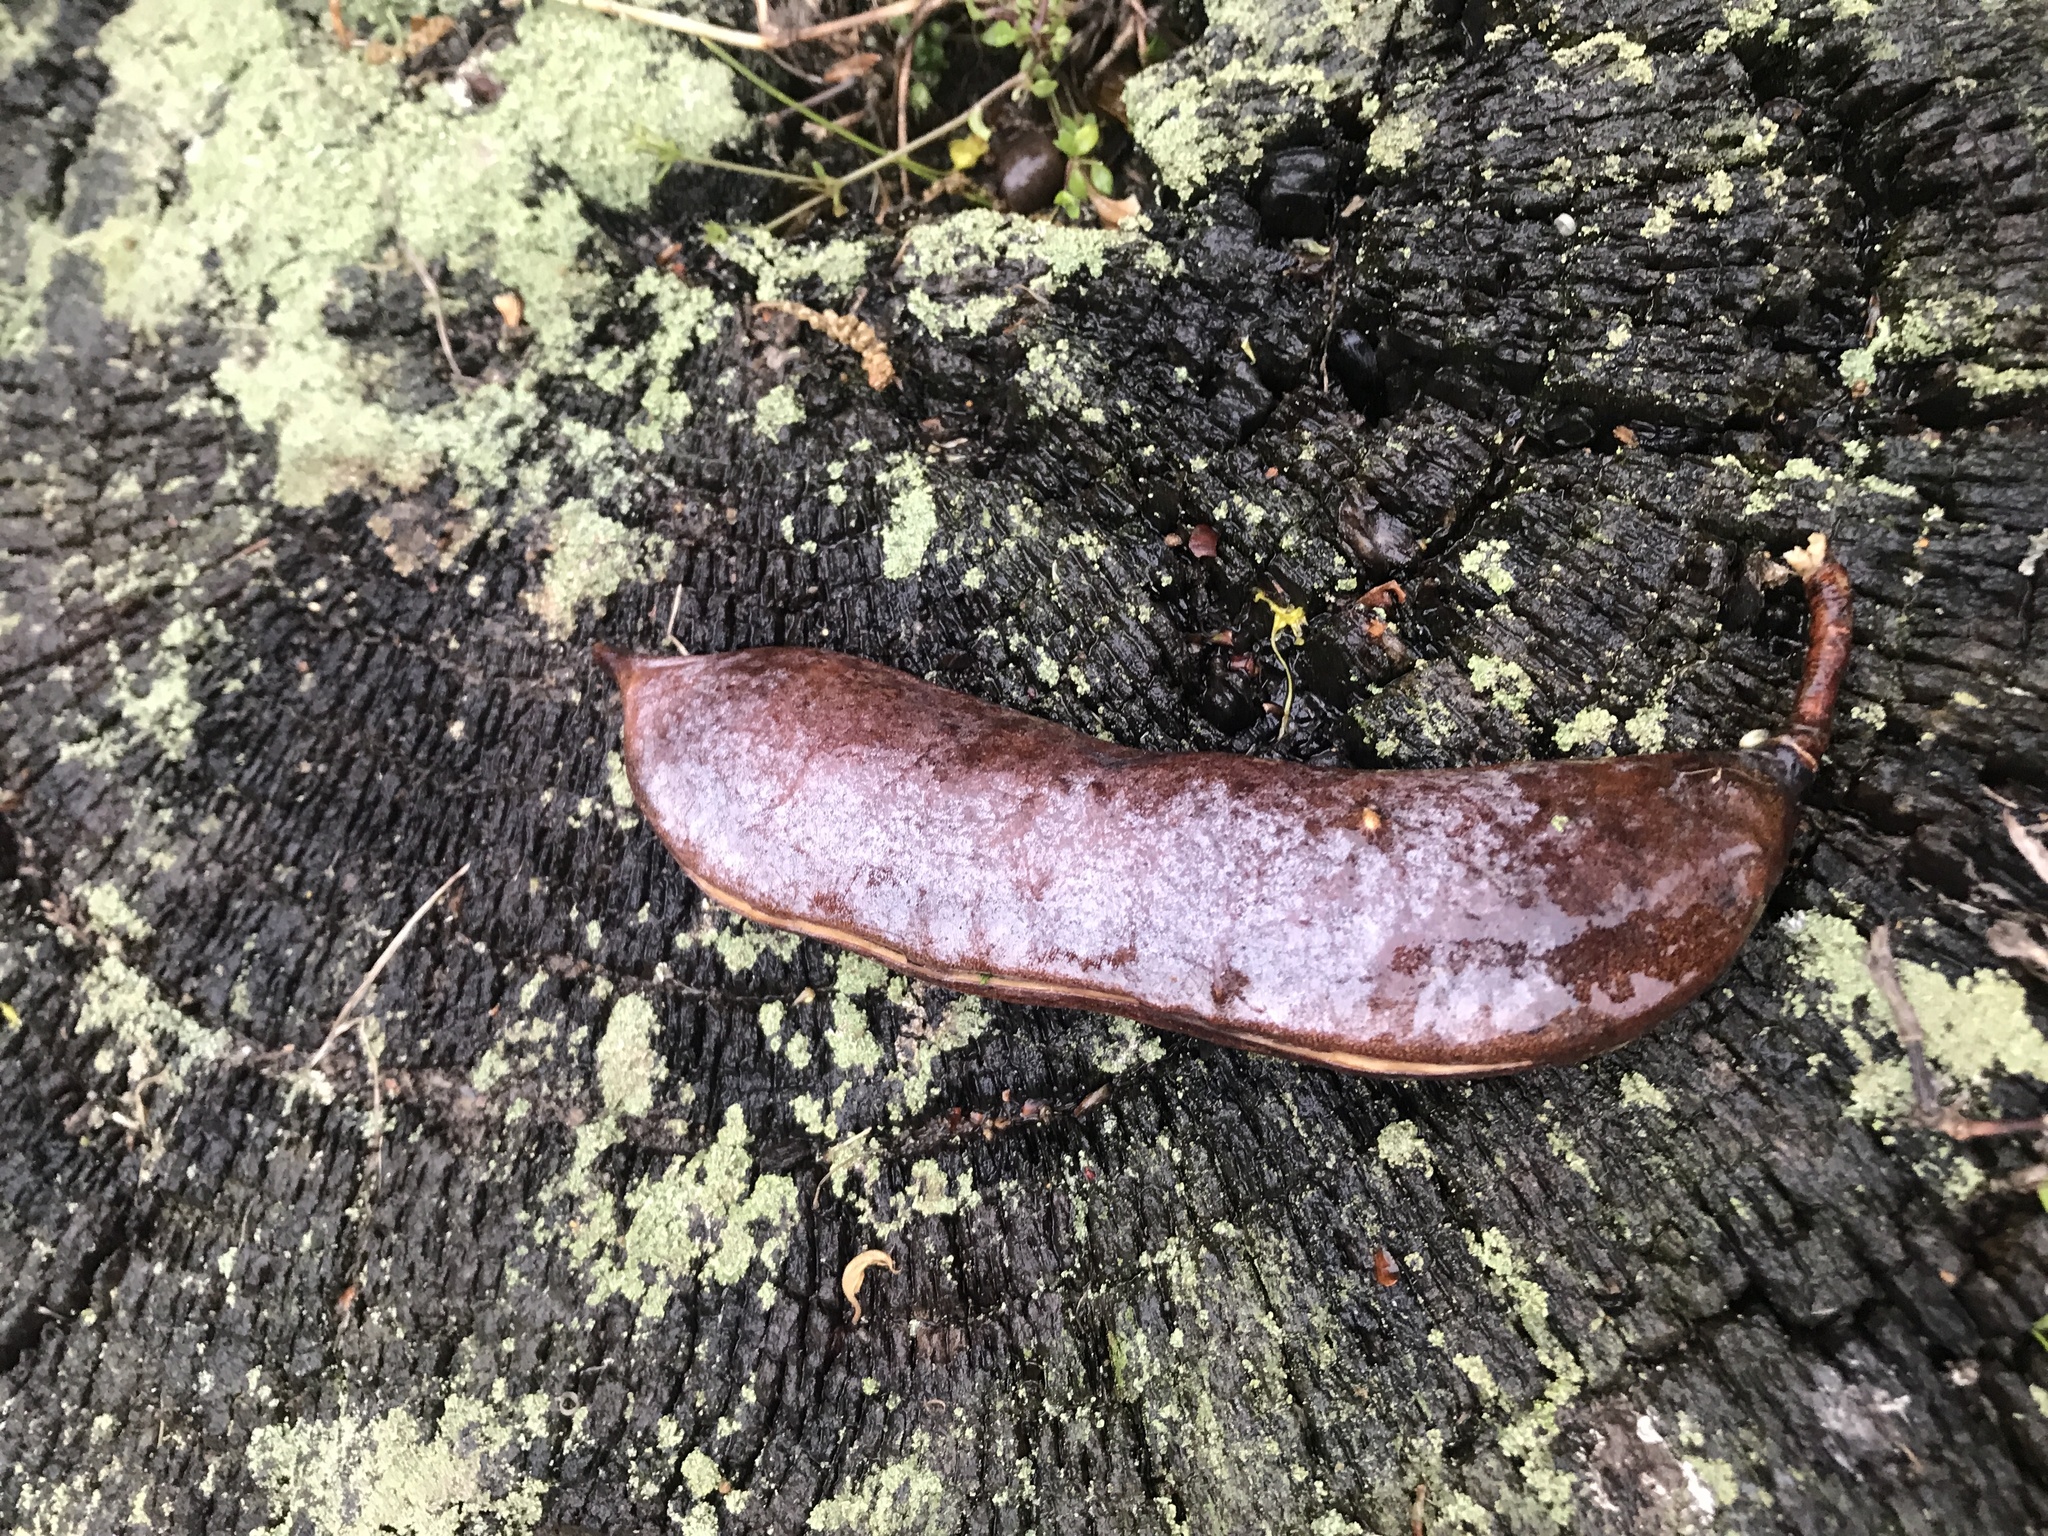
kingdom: Plantae
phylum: Tracheophyta
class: Magnoliopsida
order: Fabales
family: Fabaceae
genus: Gymnocladus
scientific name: Gymnocladus dioicus
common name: Kentucky coffee-tree
